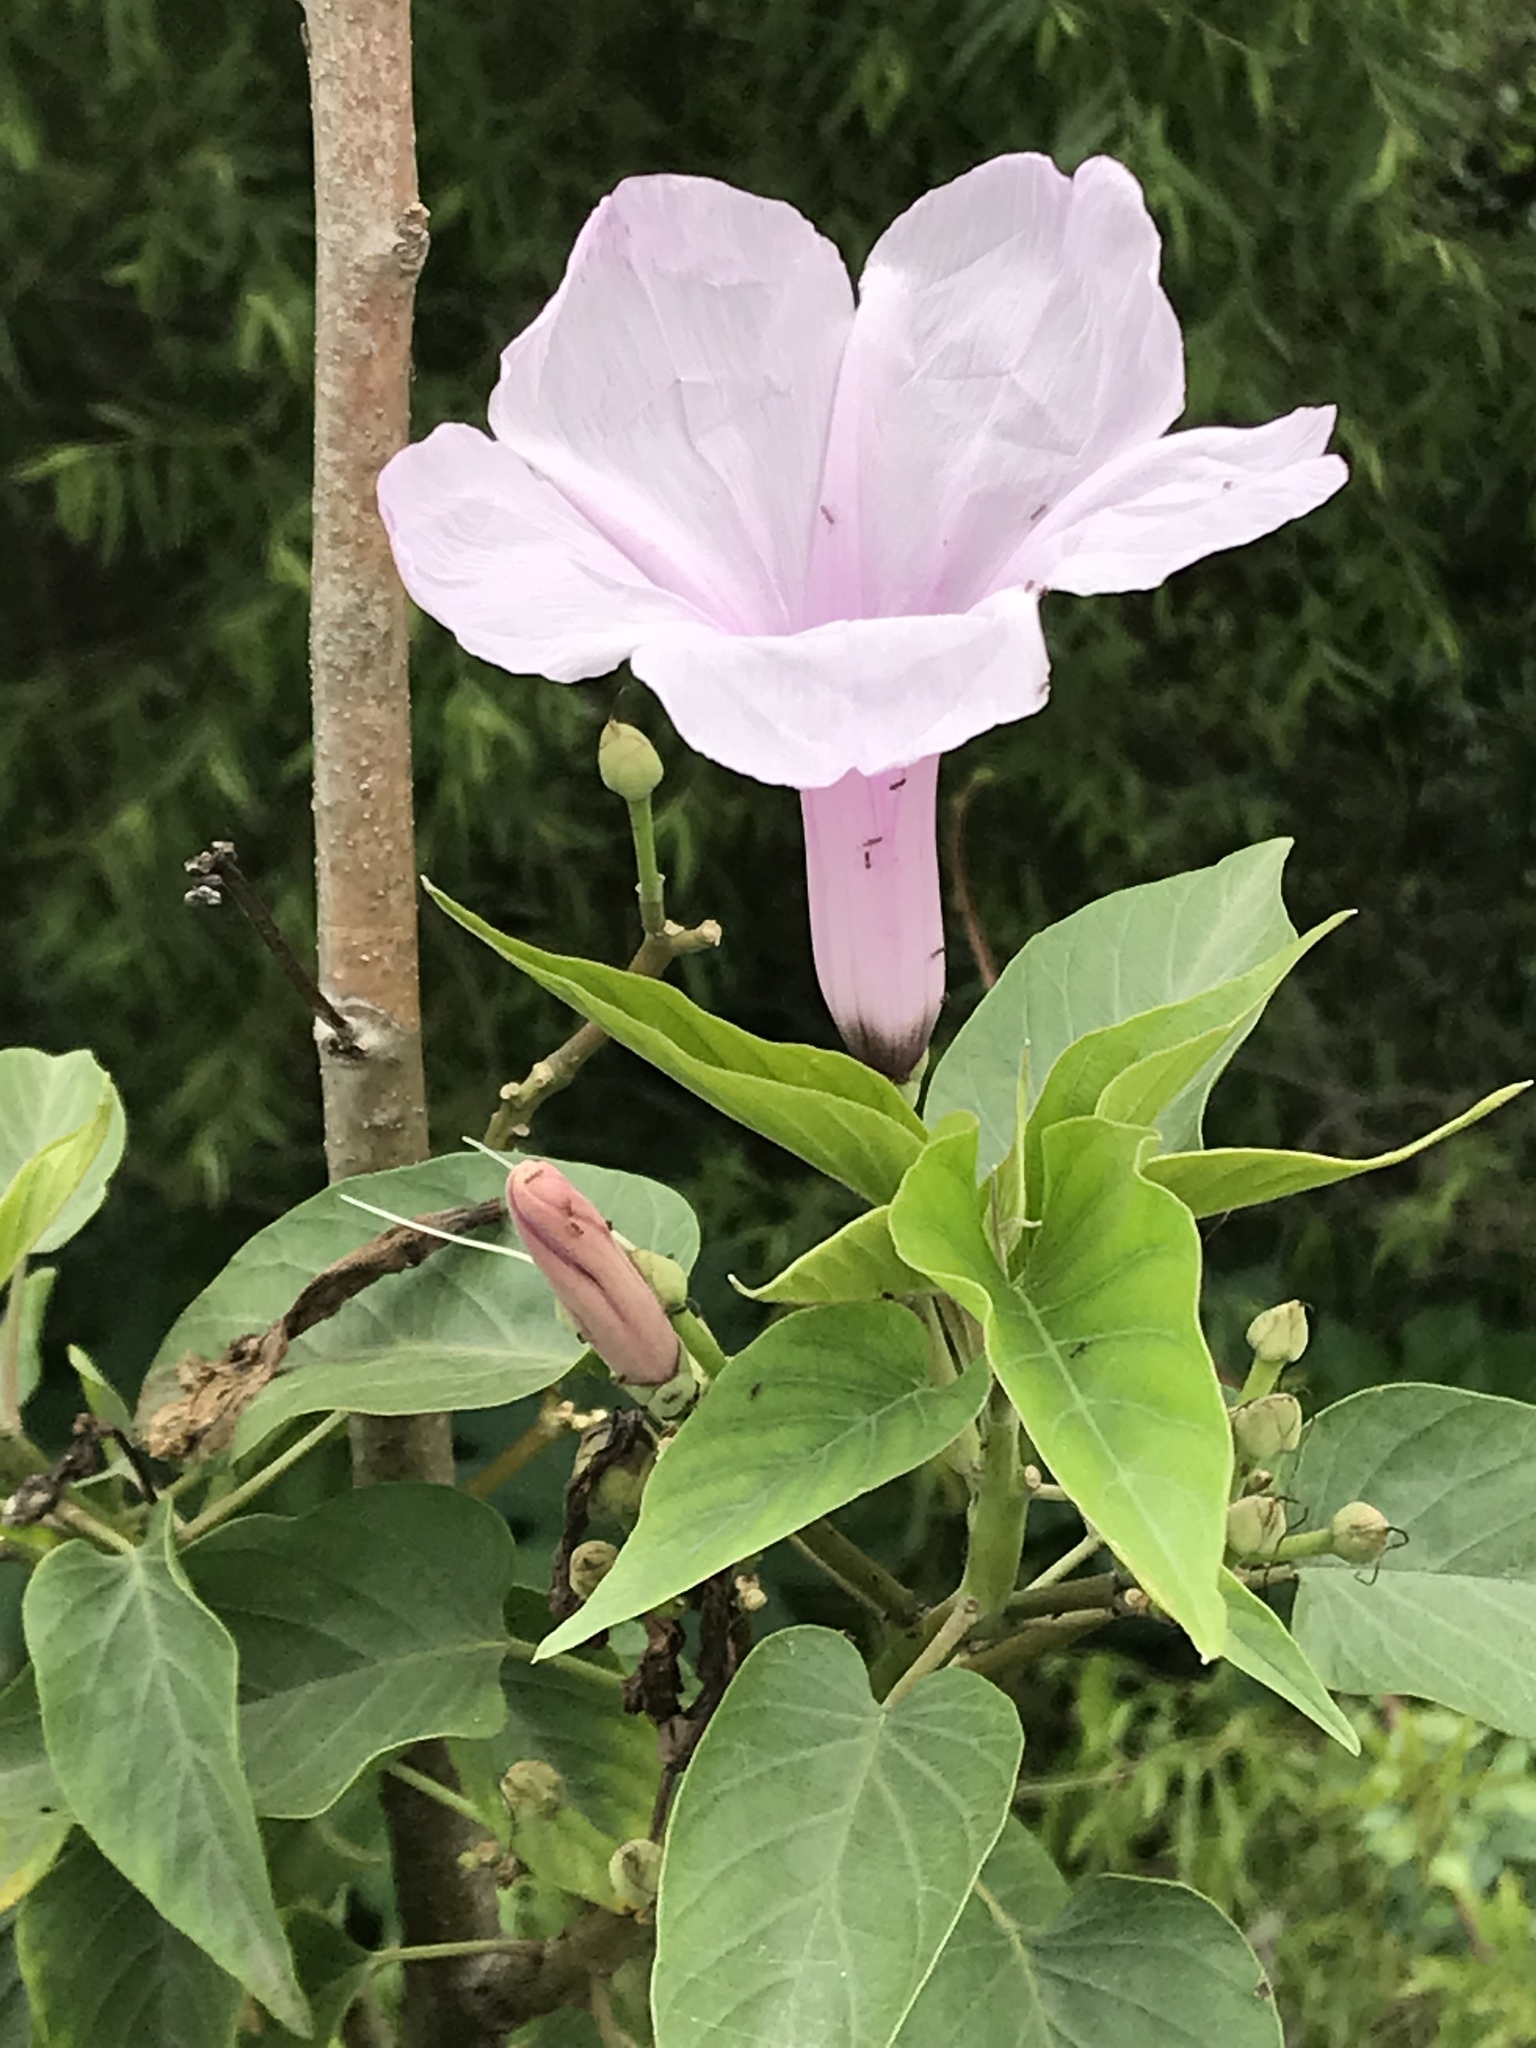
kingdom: Plantae
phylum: Tracheophyta
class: Magnoliopsida
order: Solanales
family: Convolvulaceae
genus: Ipomoea
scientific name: Ipomoea carnea
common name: Morning-glory
